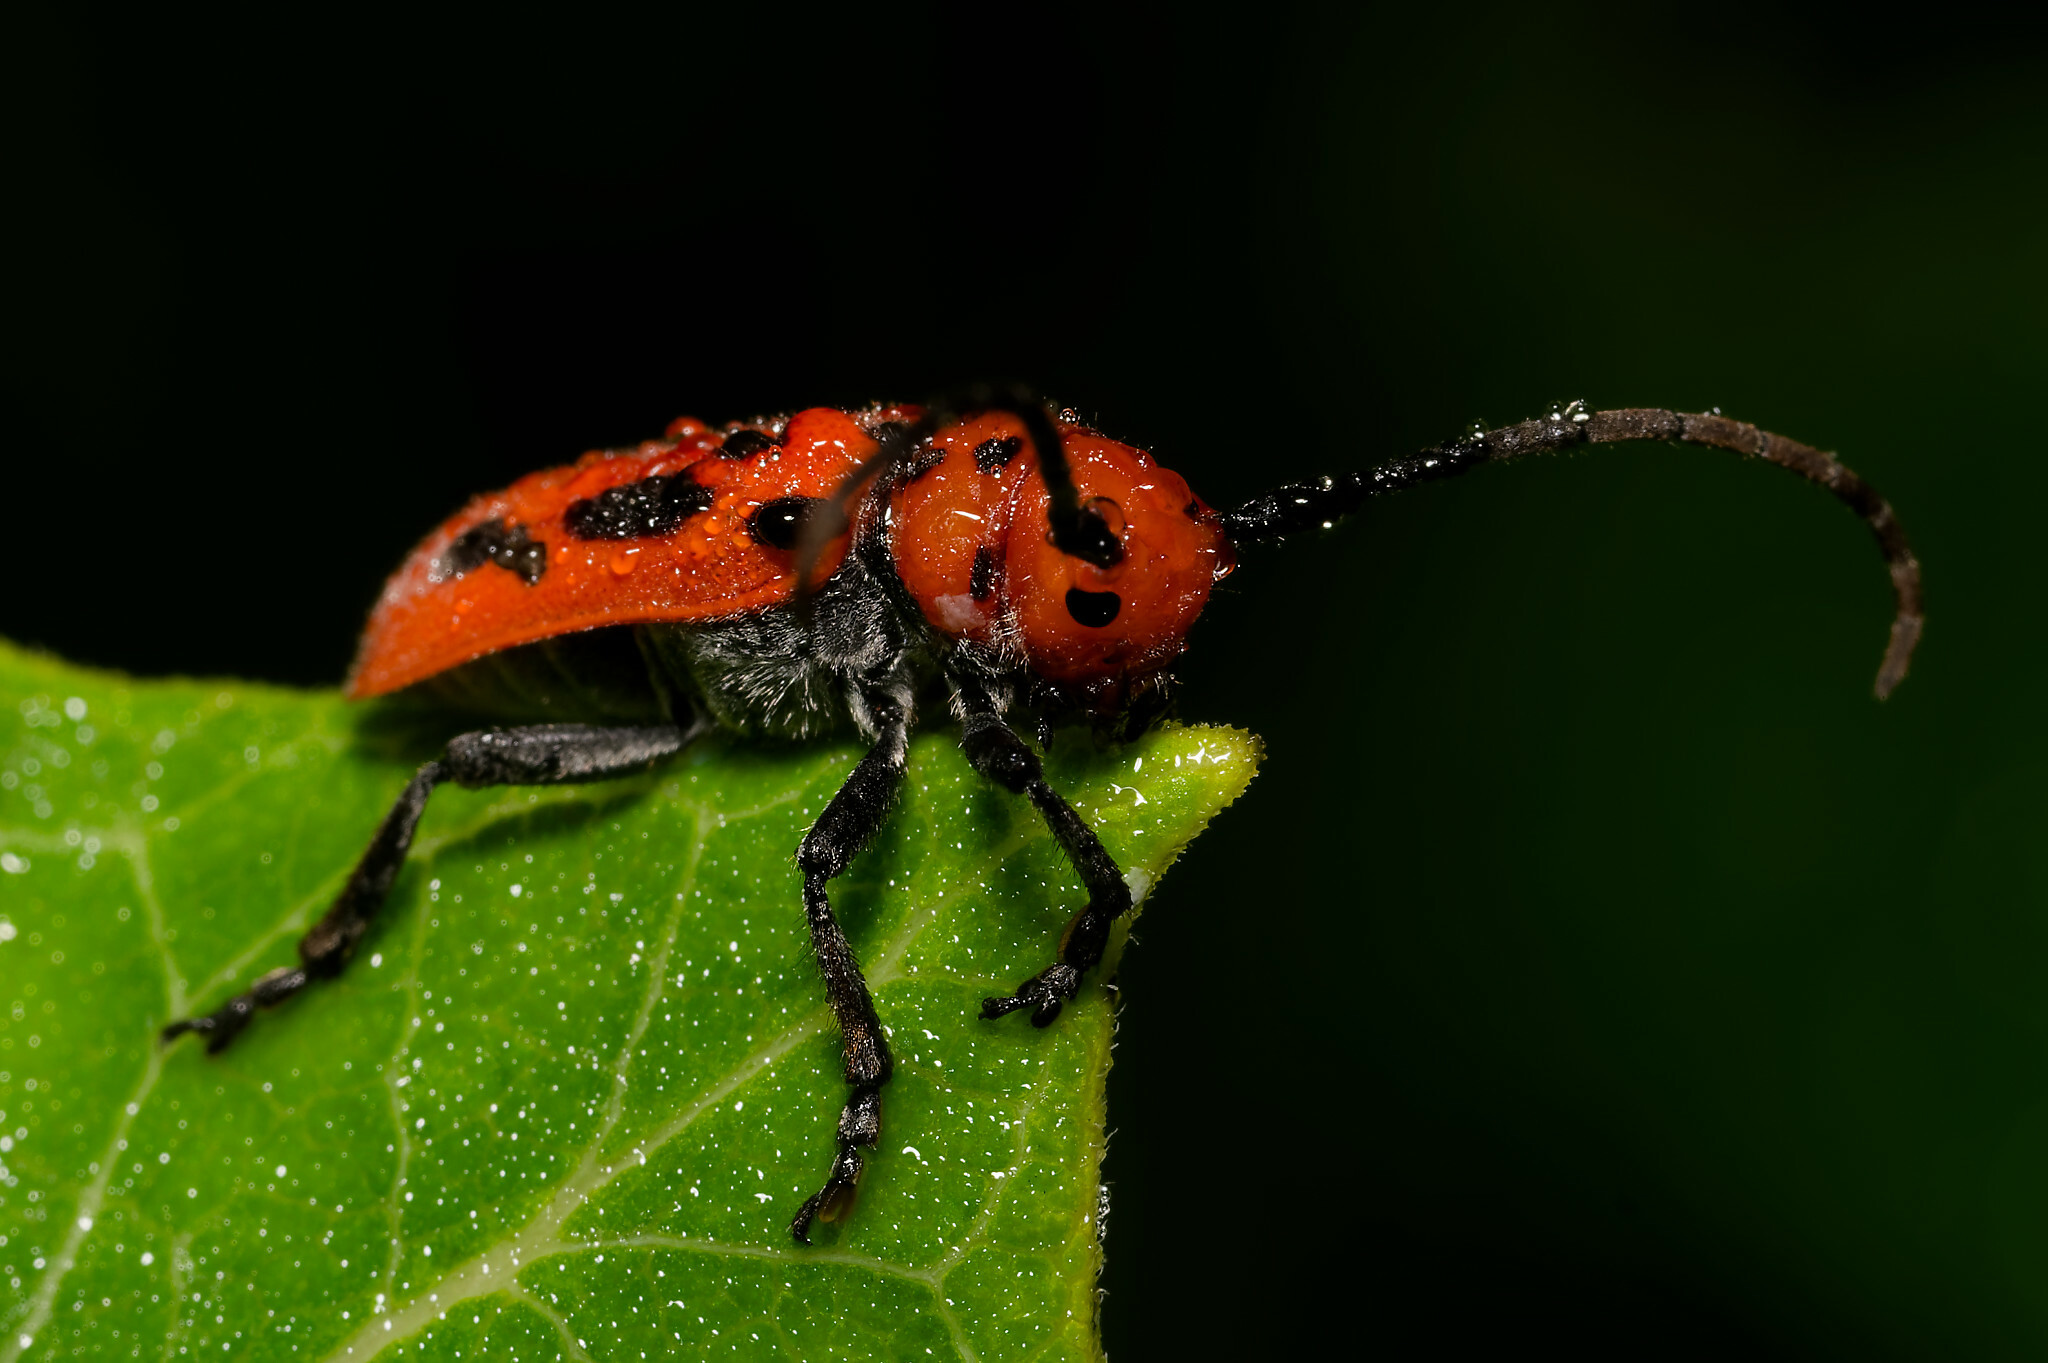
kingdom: Animalia
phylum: Arthropoda
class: Insecta
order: Coleoptera
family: Cerambycidae
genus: Tetraopes
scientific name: Tetraopes tetrophthalmus
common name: Red milkweed beetle
